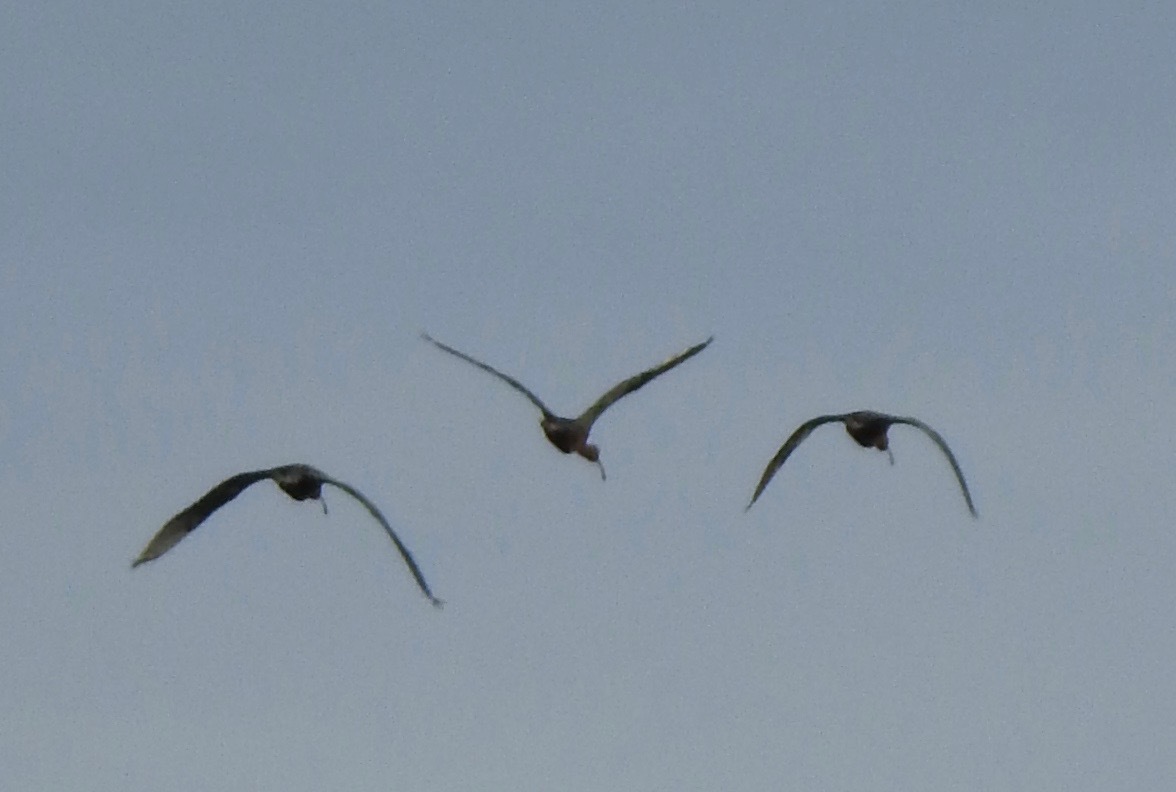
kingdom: Animalia
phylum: Chordata
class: Aves
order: Pelecaniformes
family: Threskiornithidae
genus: Plegadis
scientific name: Plegadis chihi
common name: White-faced ibis
